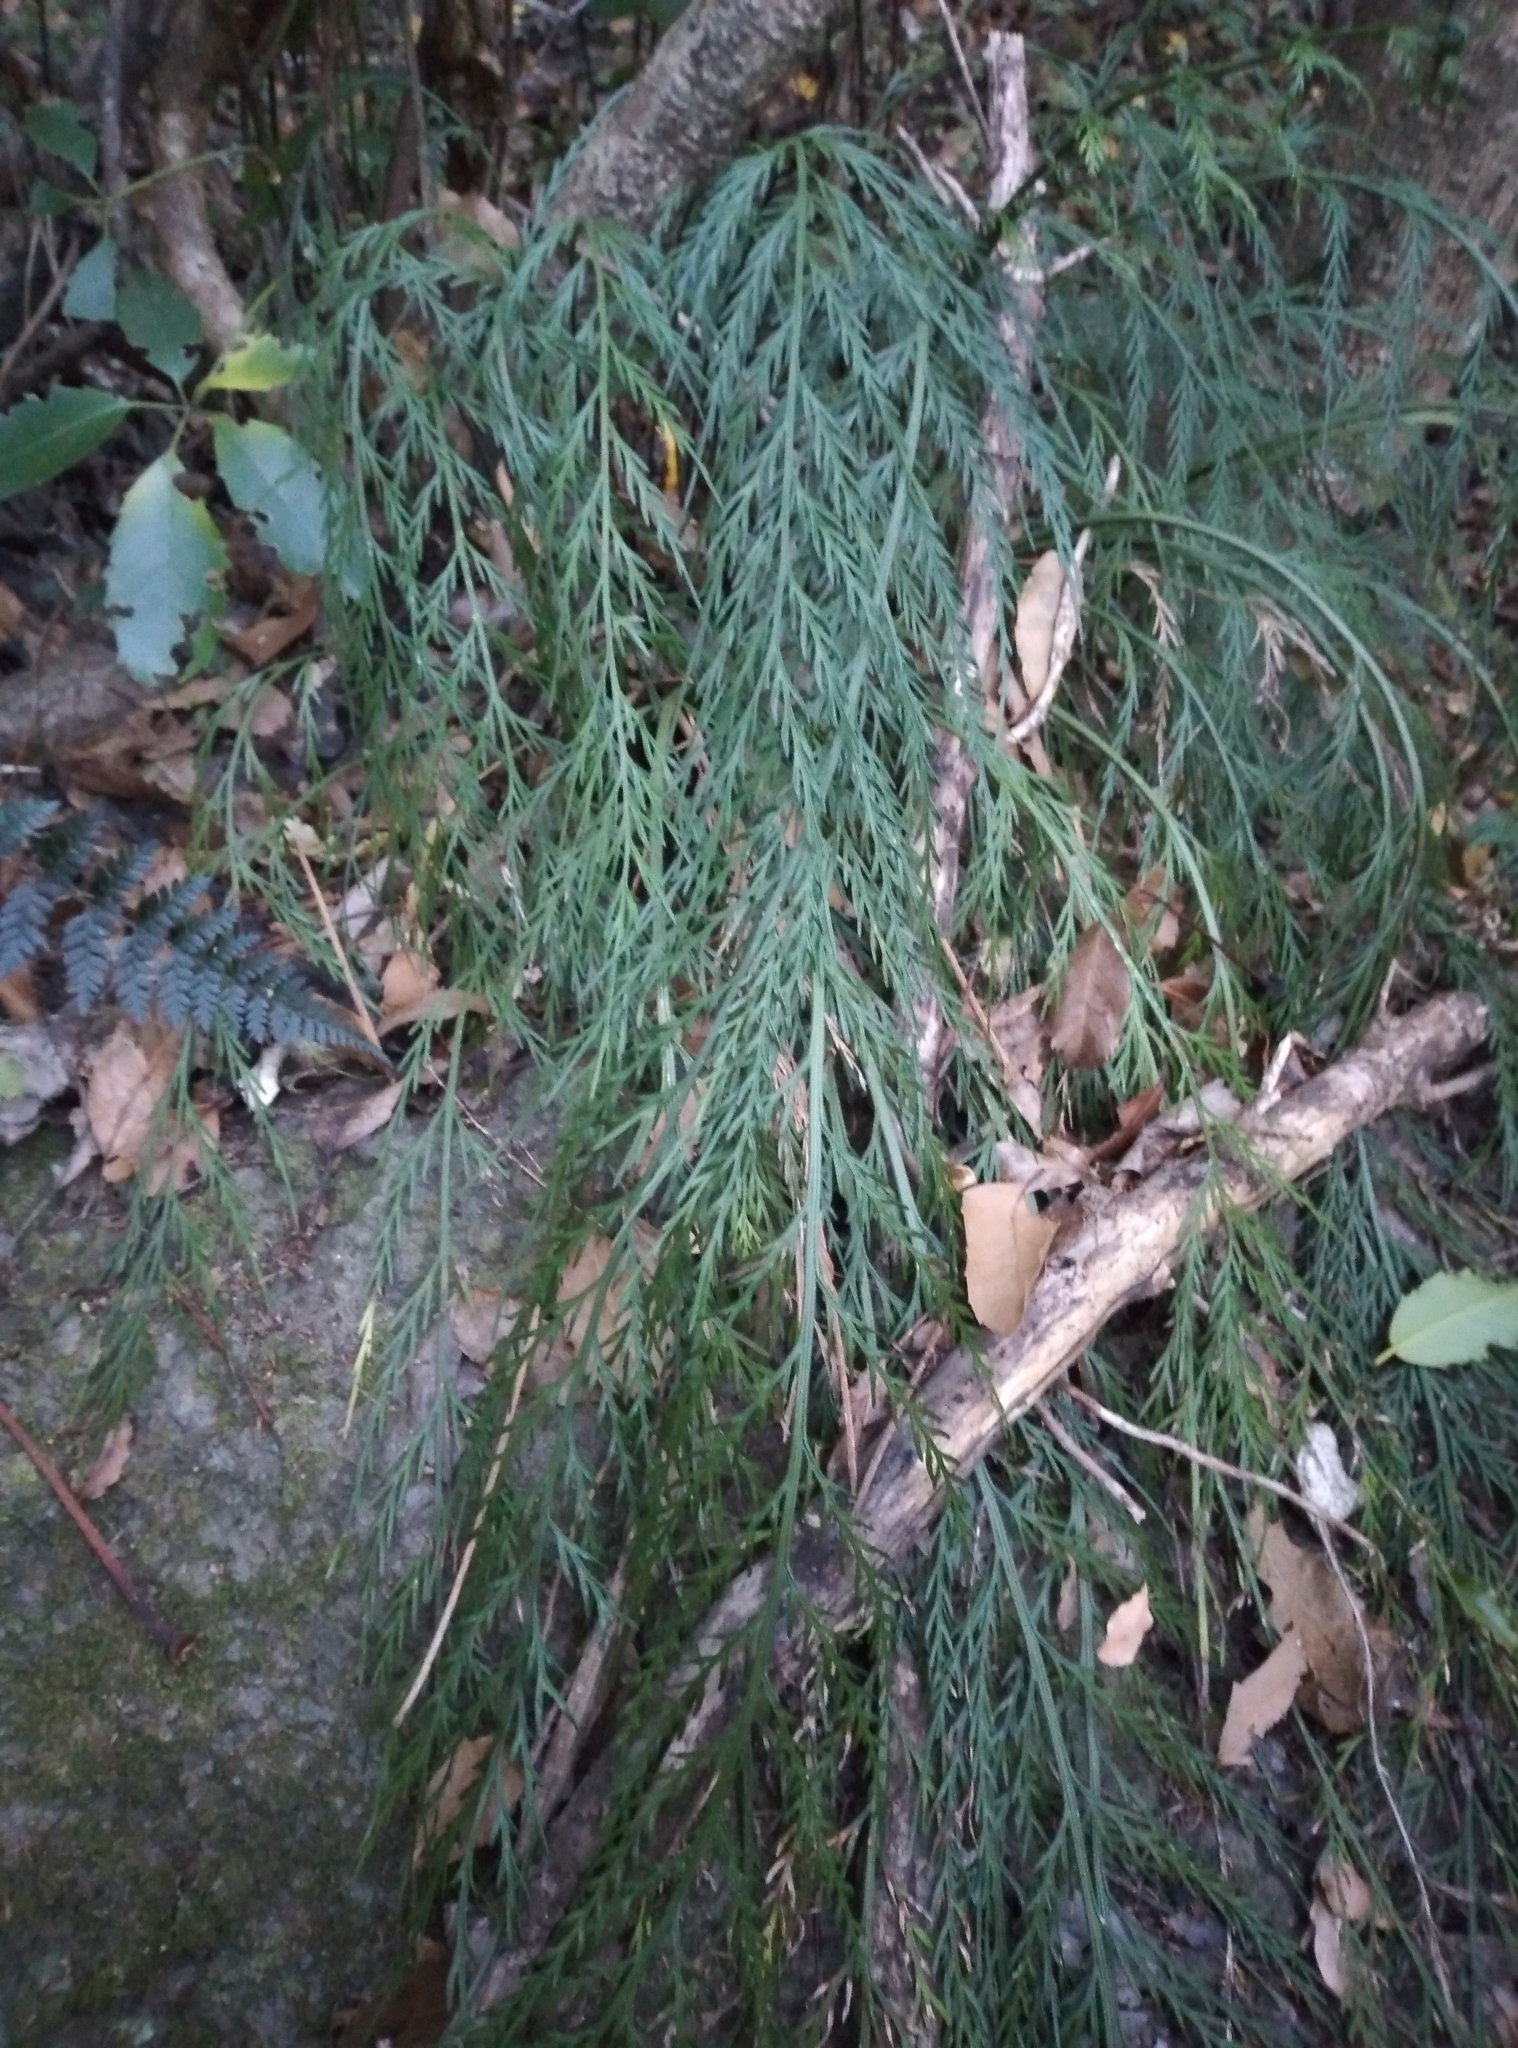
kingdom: Plantae
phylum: Tracheophyta
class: Polypodiopsida
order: Polypodiales
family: Aspleniaceae
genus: Asplenium
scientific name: Asplenium flaccidum
